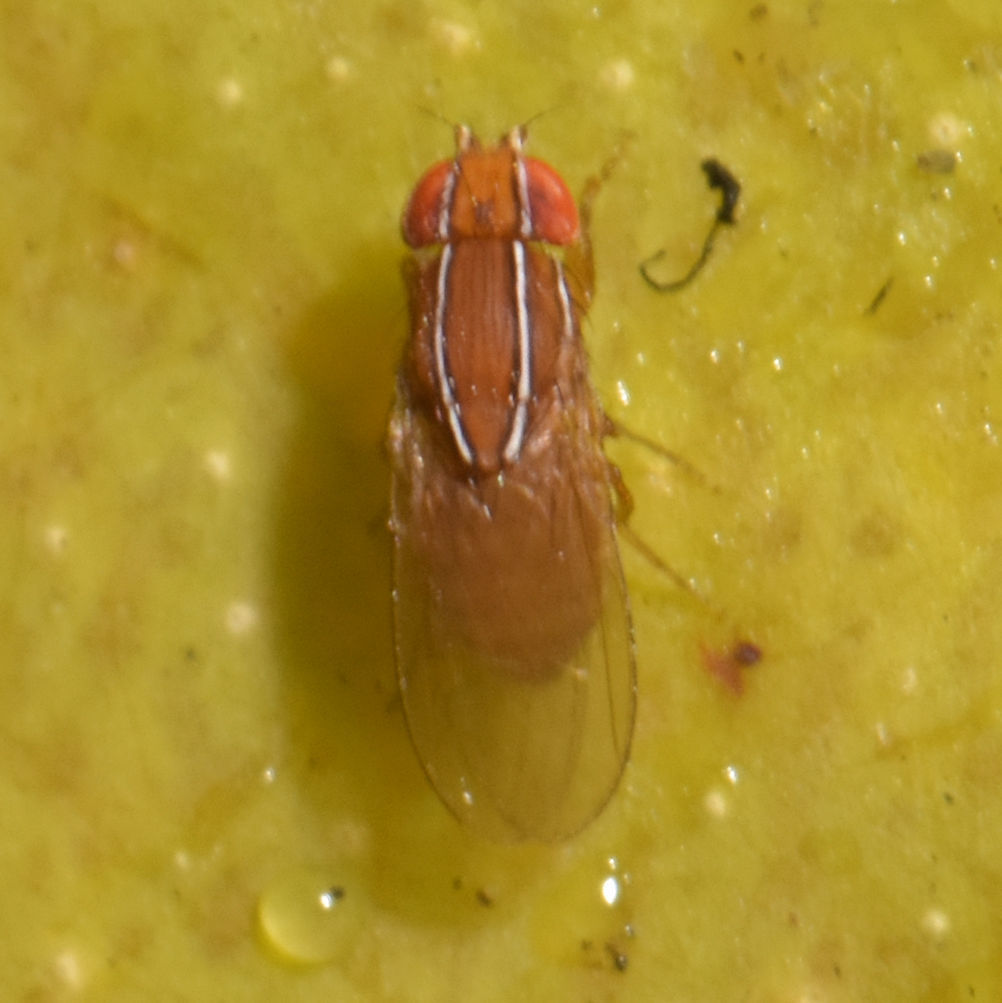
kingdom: Animalia
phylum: Arthropoda
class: Insecta
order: Diptera
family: Drosophilidae
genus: Zaprionus
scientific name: Zaprionus indianus
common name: African fig fly
